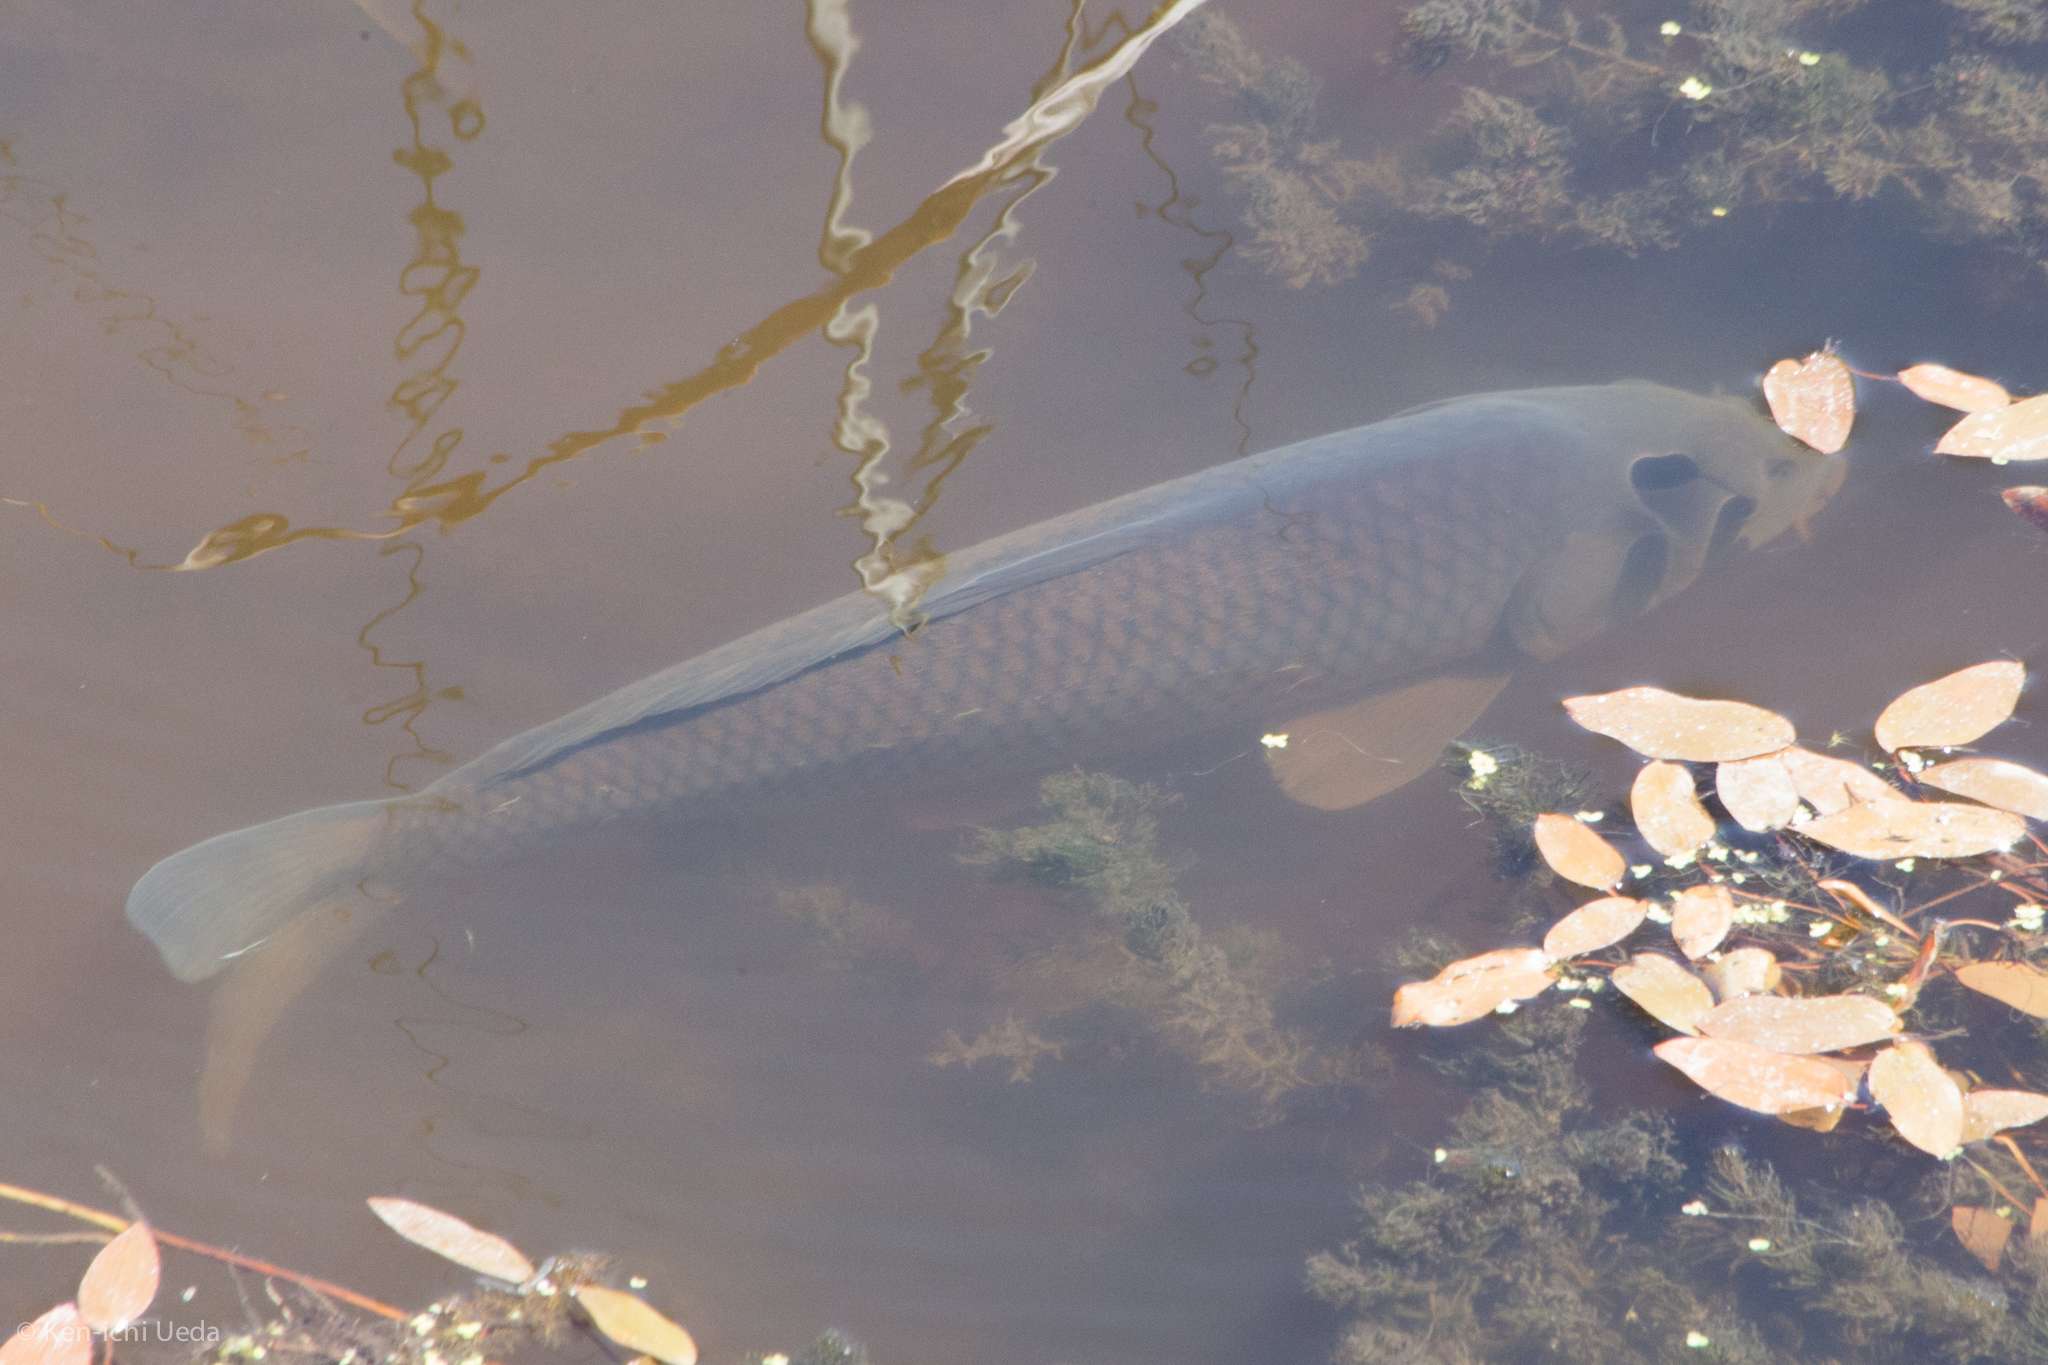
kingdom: Animalia
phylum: Chordata
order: Cypriniformes
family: Cyprinidae
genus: Cyprinus
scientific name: Cyprinus carpio
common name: Common carp
